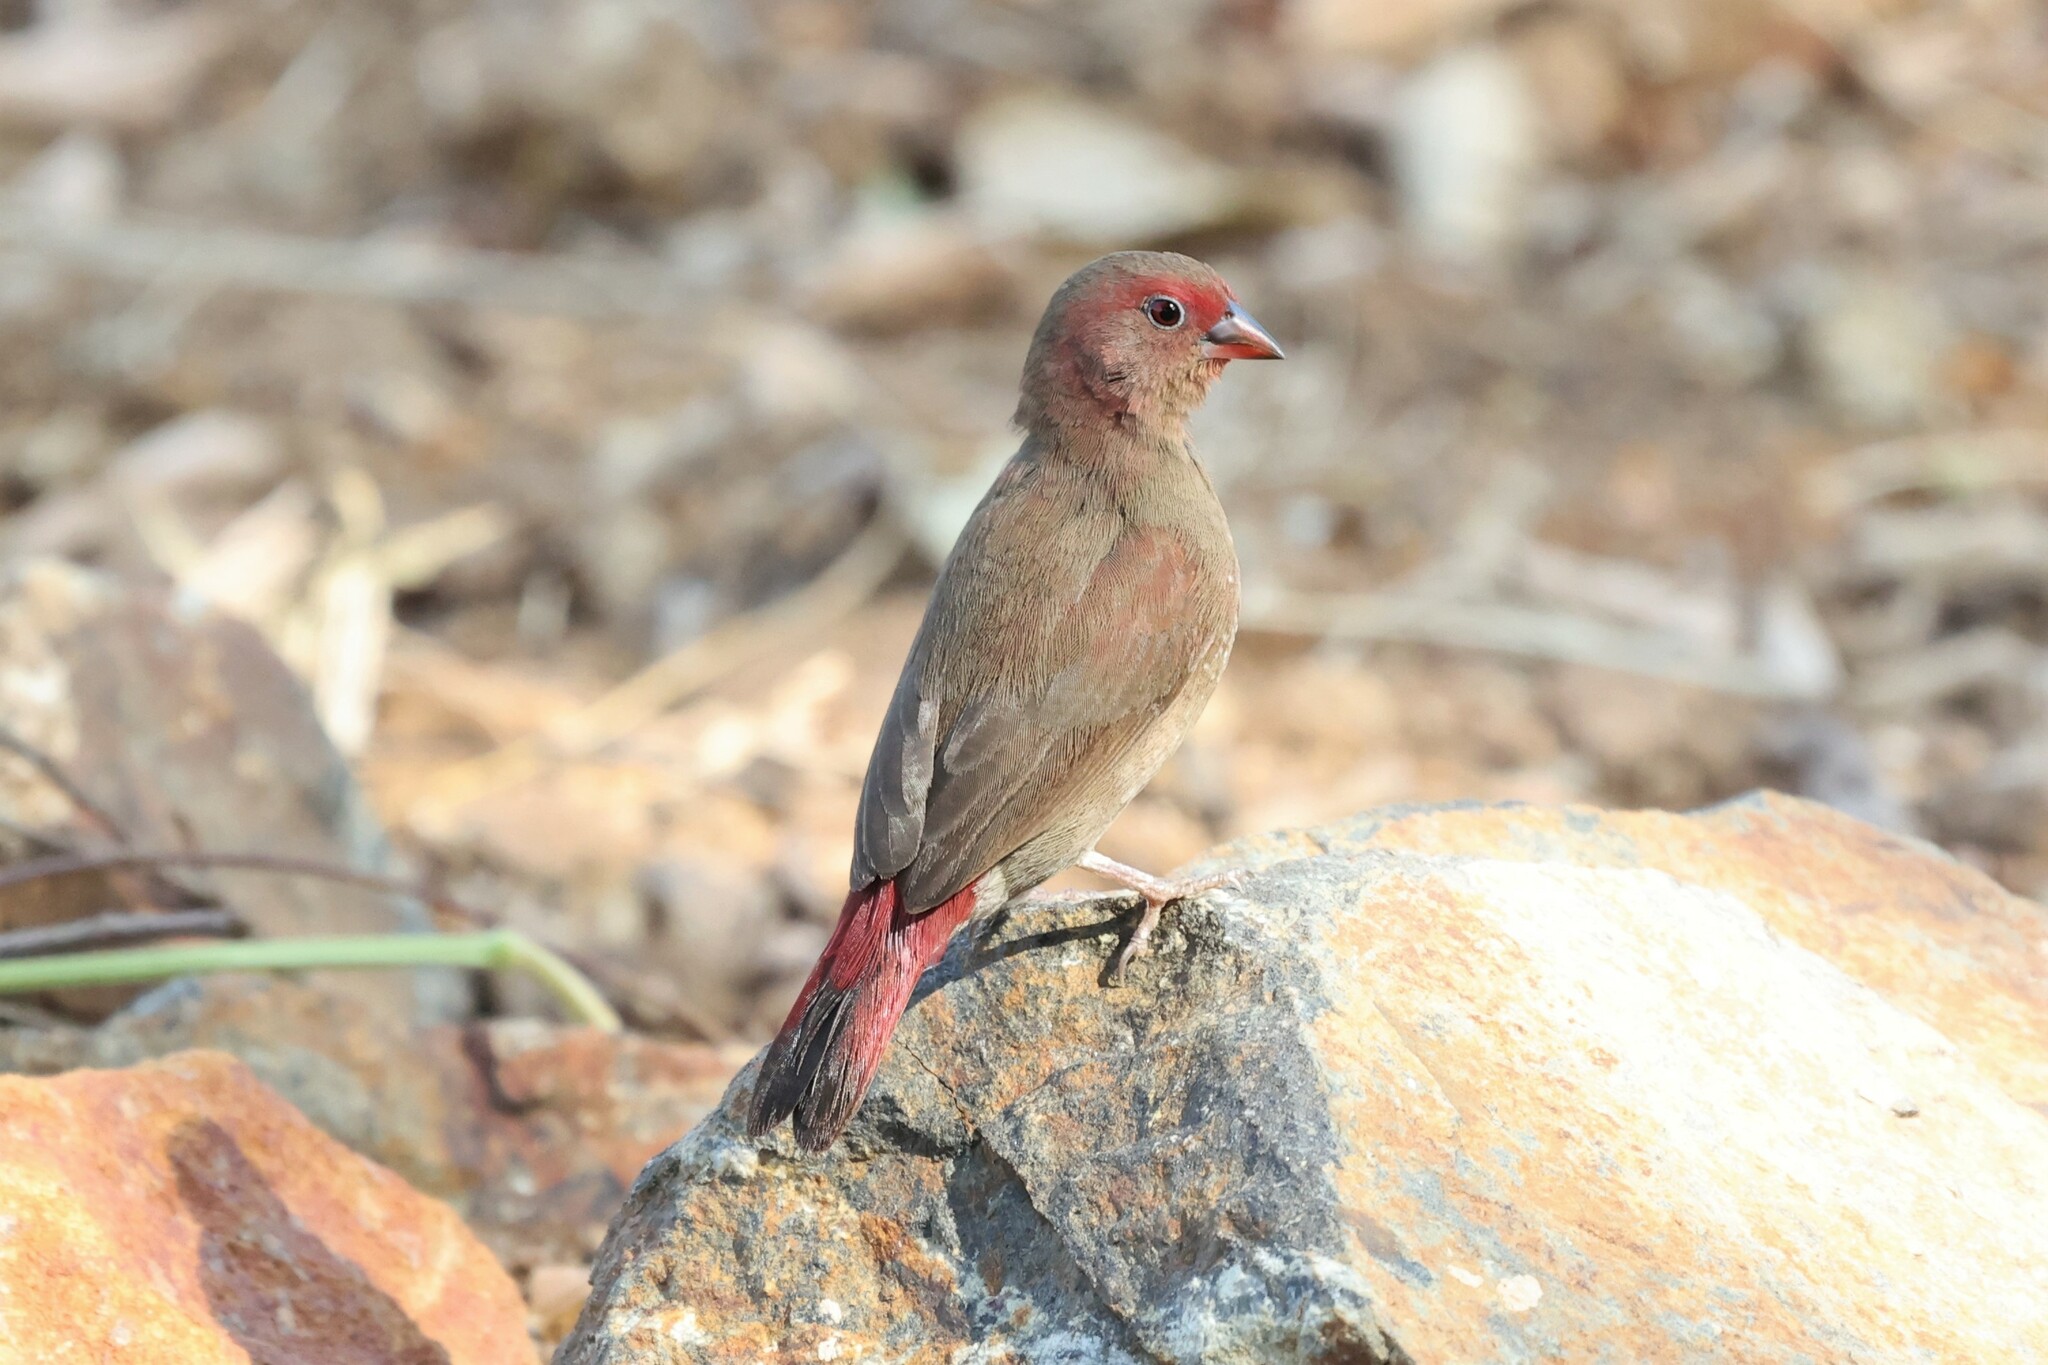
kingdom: Animalia
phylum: Chordata
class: Aves
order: Passeriformes
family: Estrildidae
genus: Lagonosticta
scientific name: Lagonosticta senegala
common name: Red-billed firefinch
